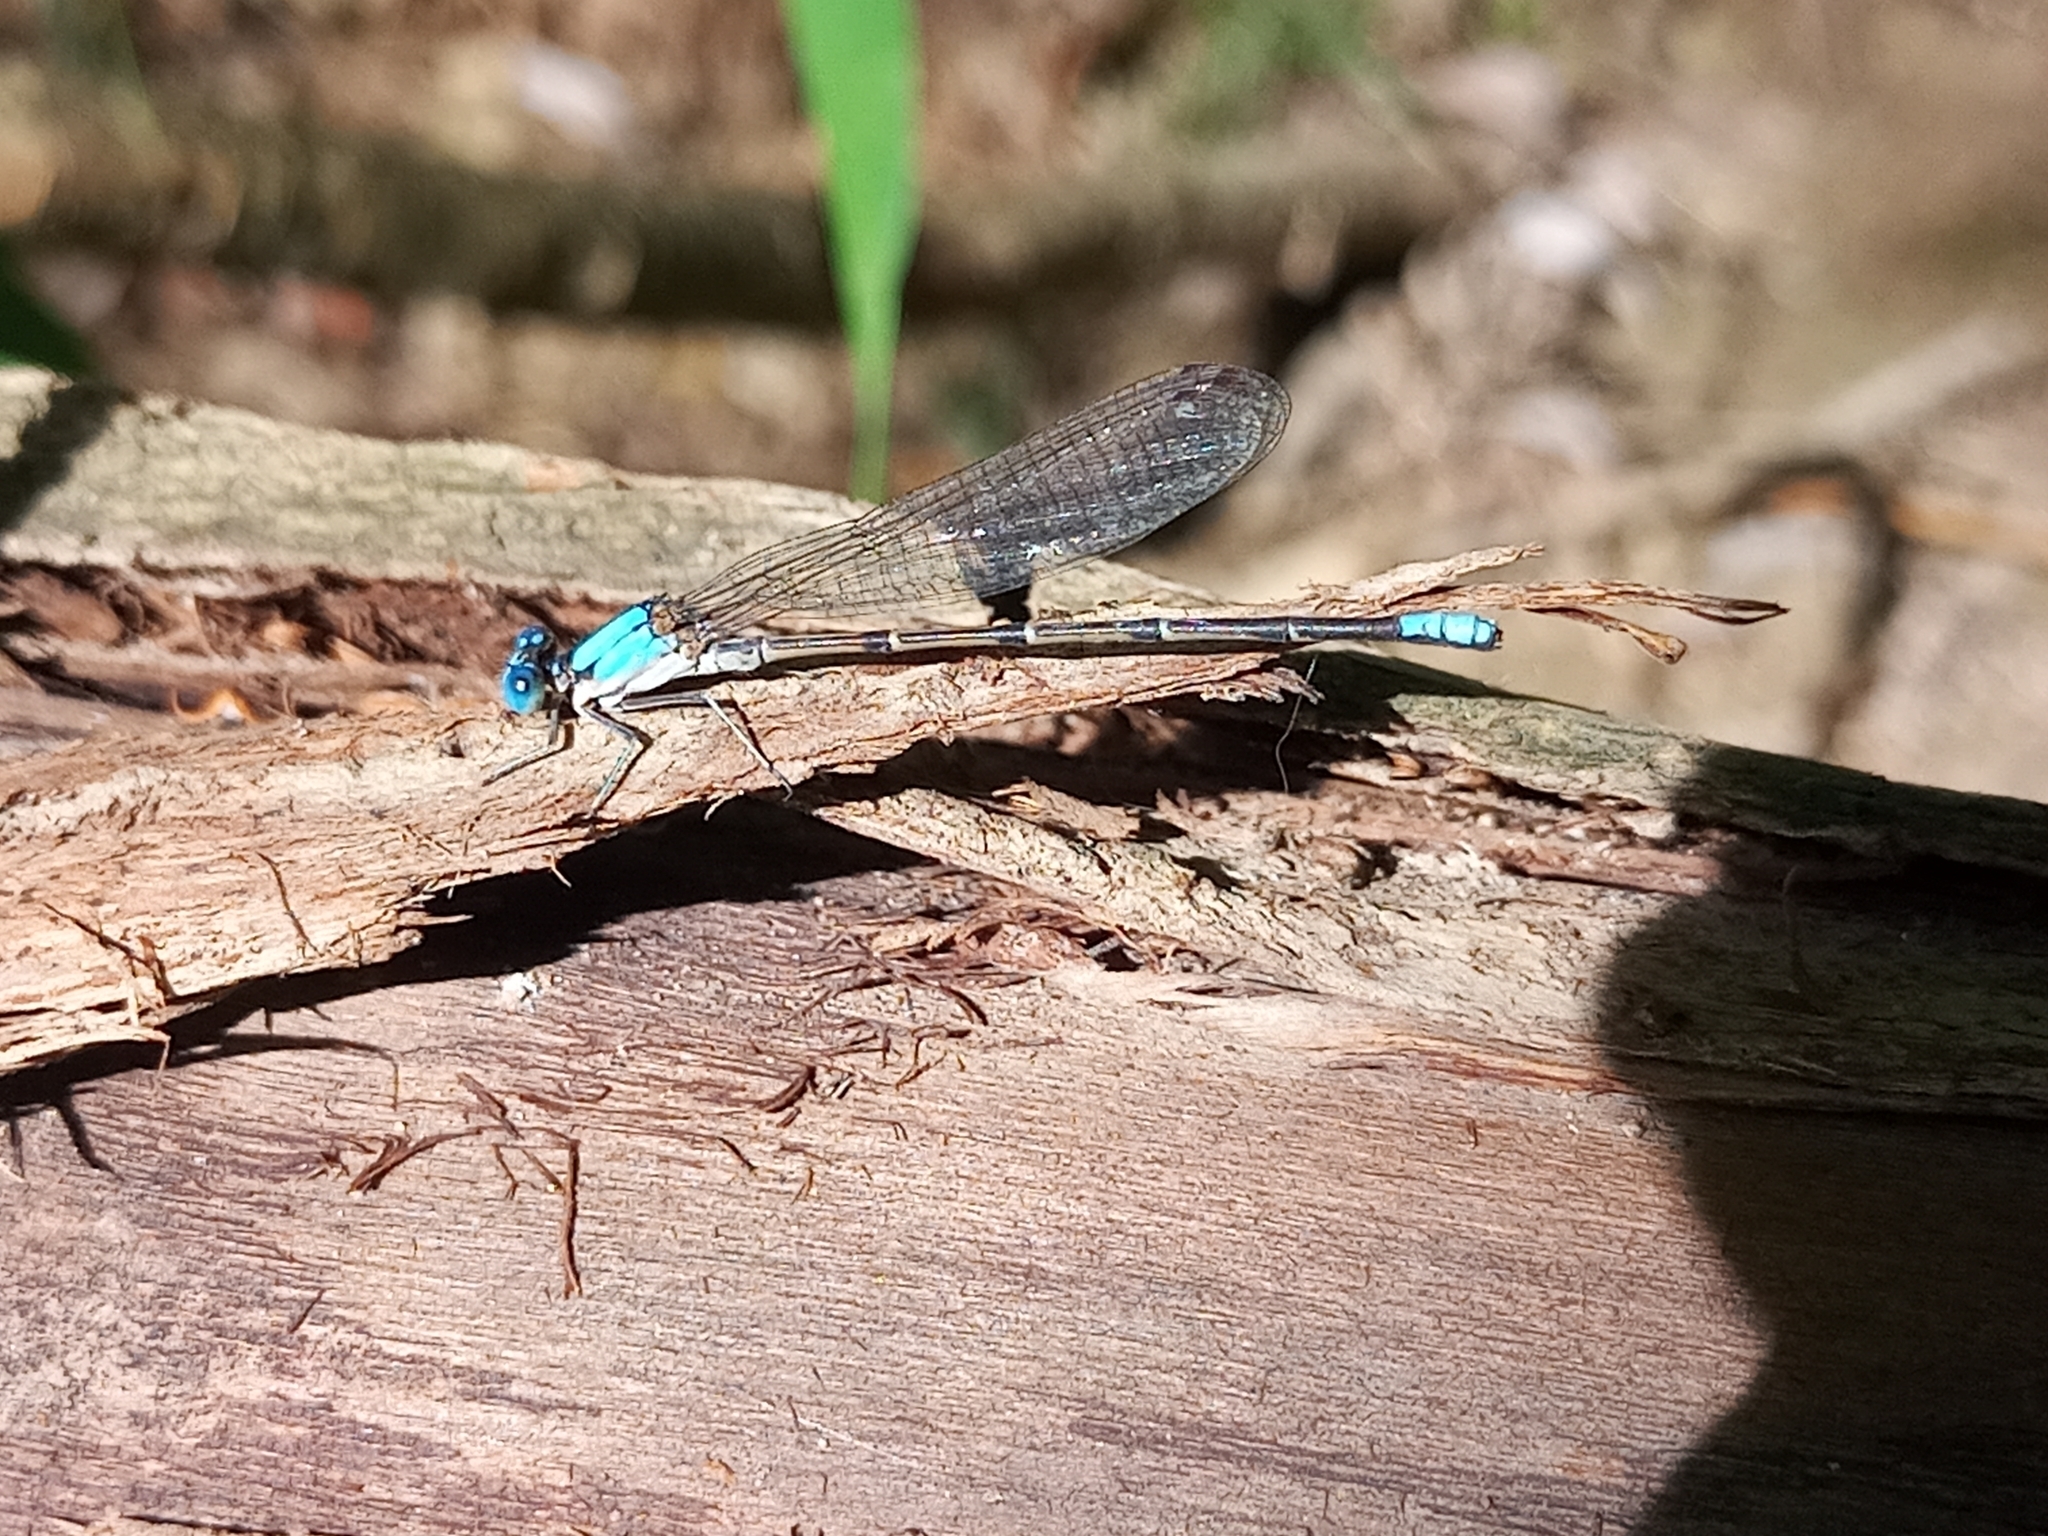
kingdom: Animalia
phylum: Arthropoda
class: Insecta
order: Odonata
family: Coenagrionidae
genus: Argia
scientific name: Argia apicalis
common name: Blue-fronted dancer
